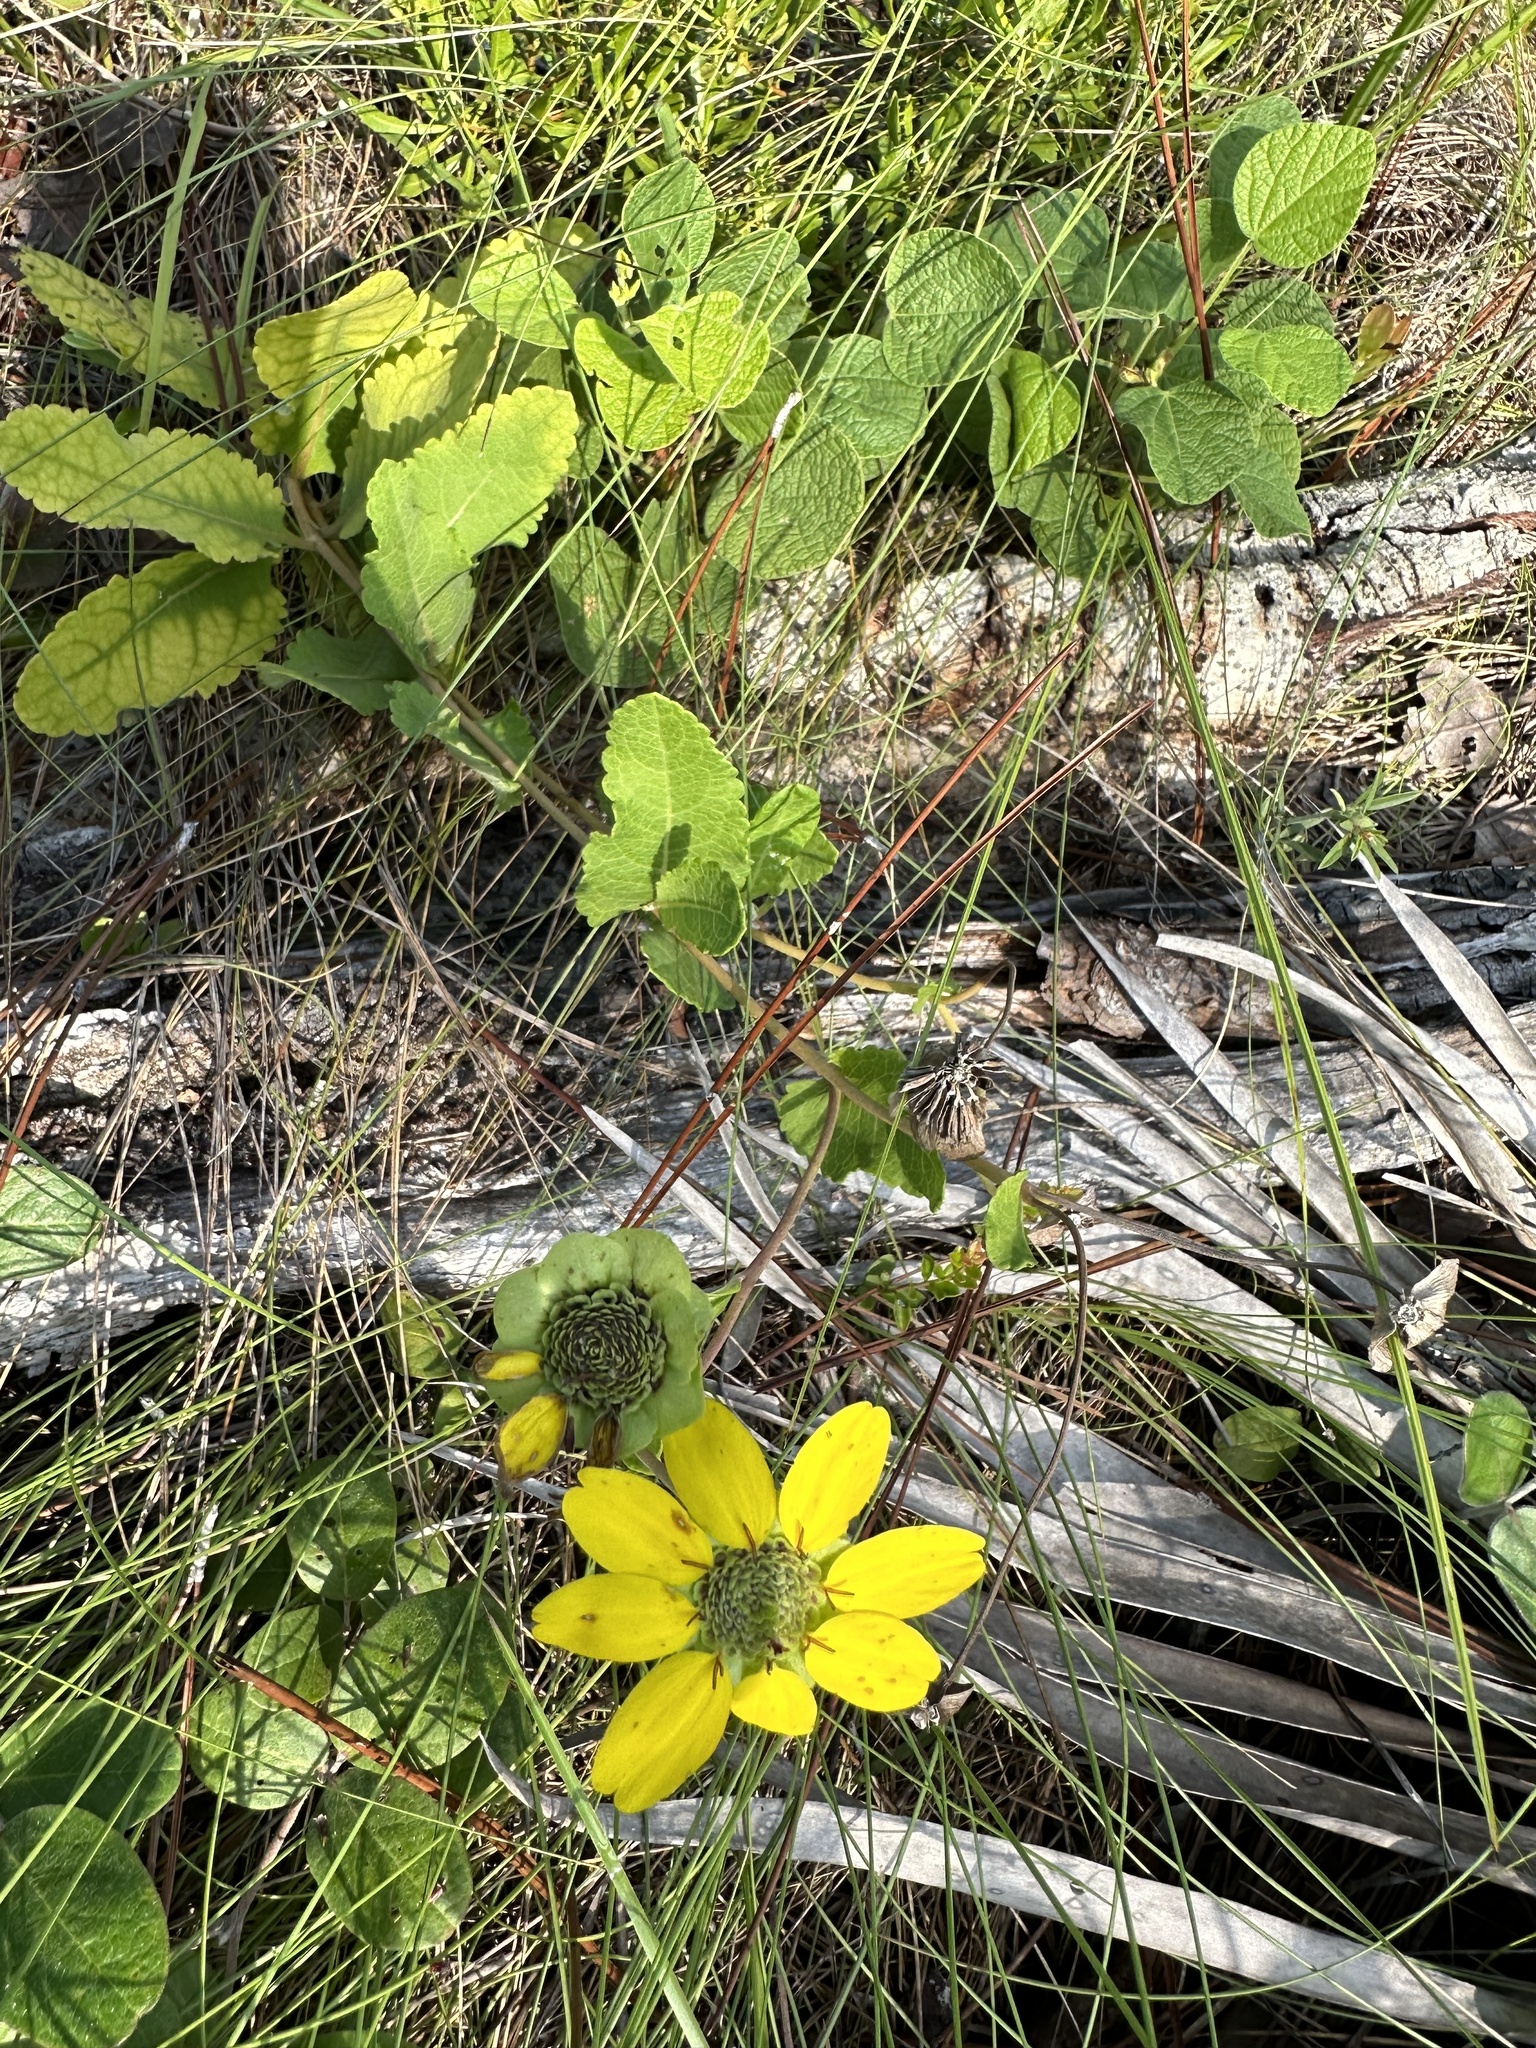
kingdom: Plantae
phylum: Tracheophyta
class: Magnoliopsida
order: Asterales
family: Asteraceae
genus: Berlandiera
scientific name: Berlandiera pumila
